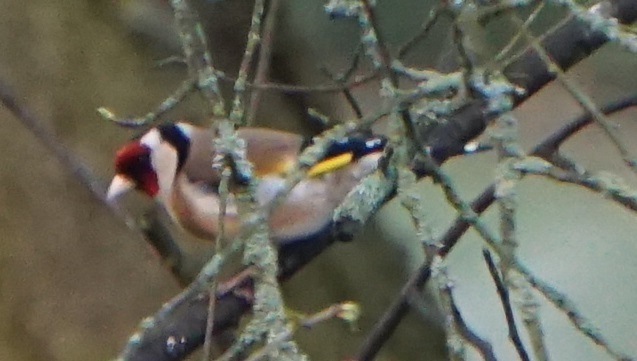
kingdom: Animalia
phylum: Chordata
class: Aves
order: Passeriformes
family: Fringillidae
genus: Carduelis
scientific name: Carduelis carduelis
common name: European goldfinch
